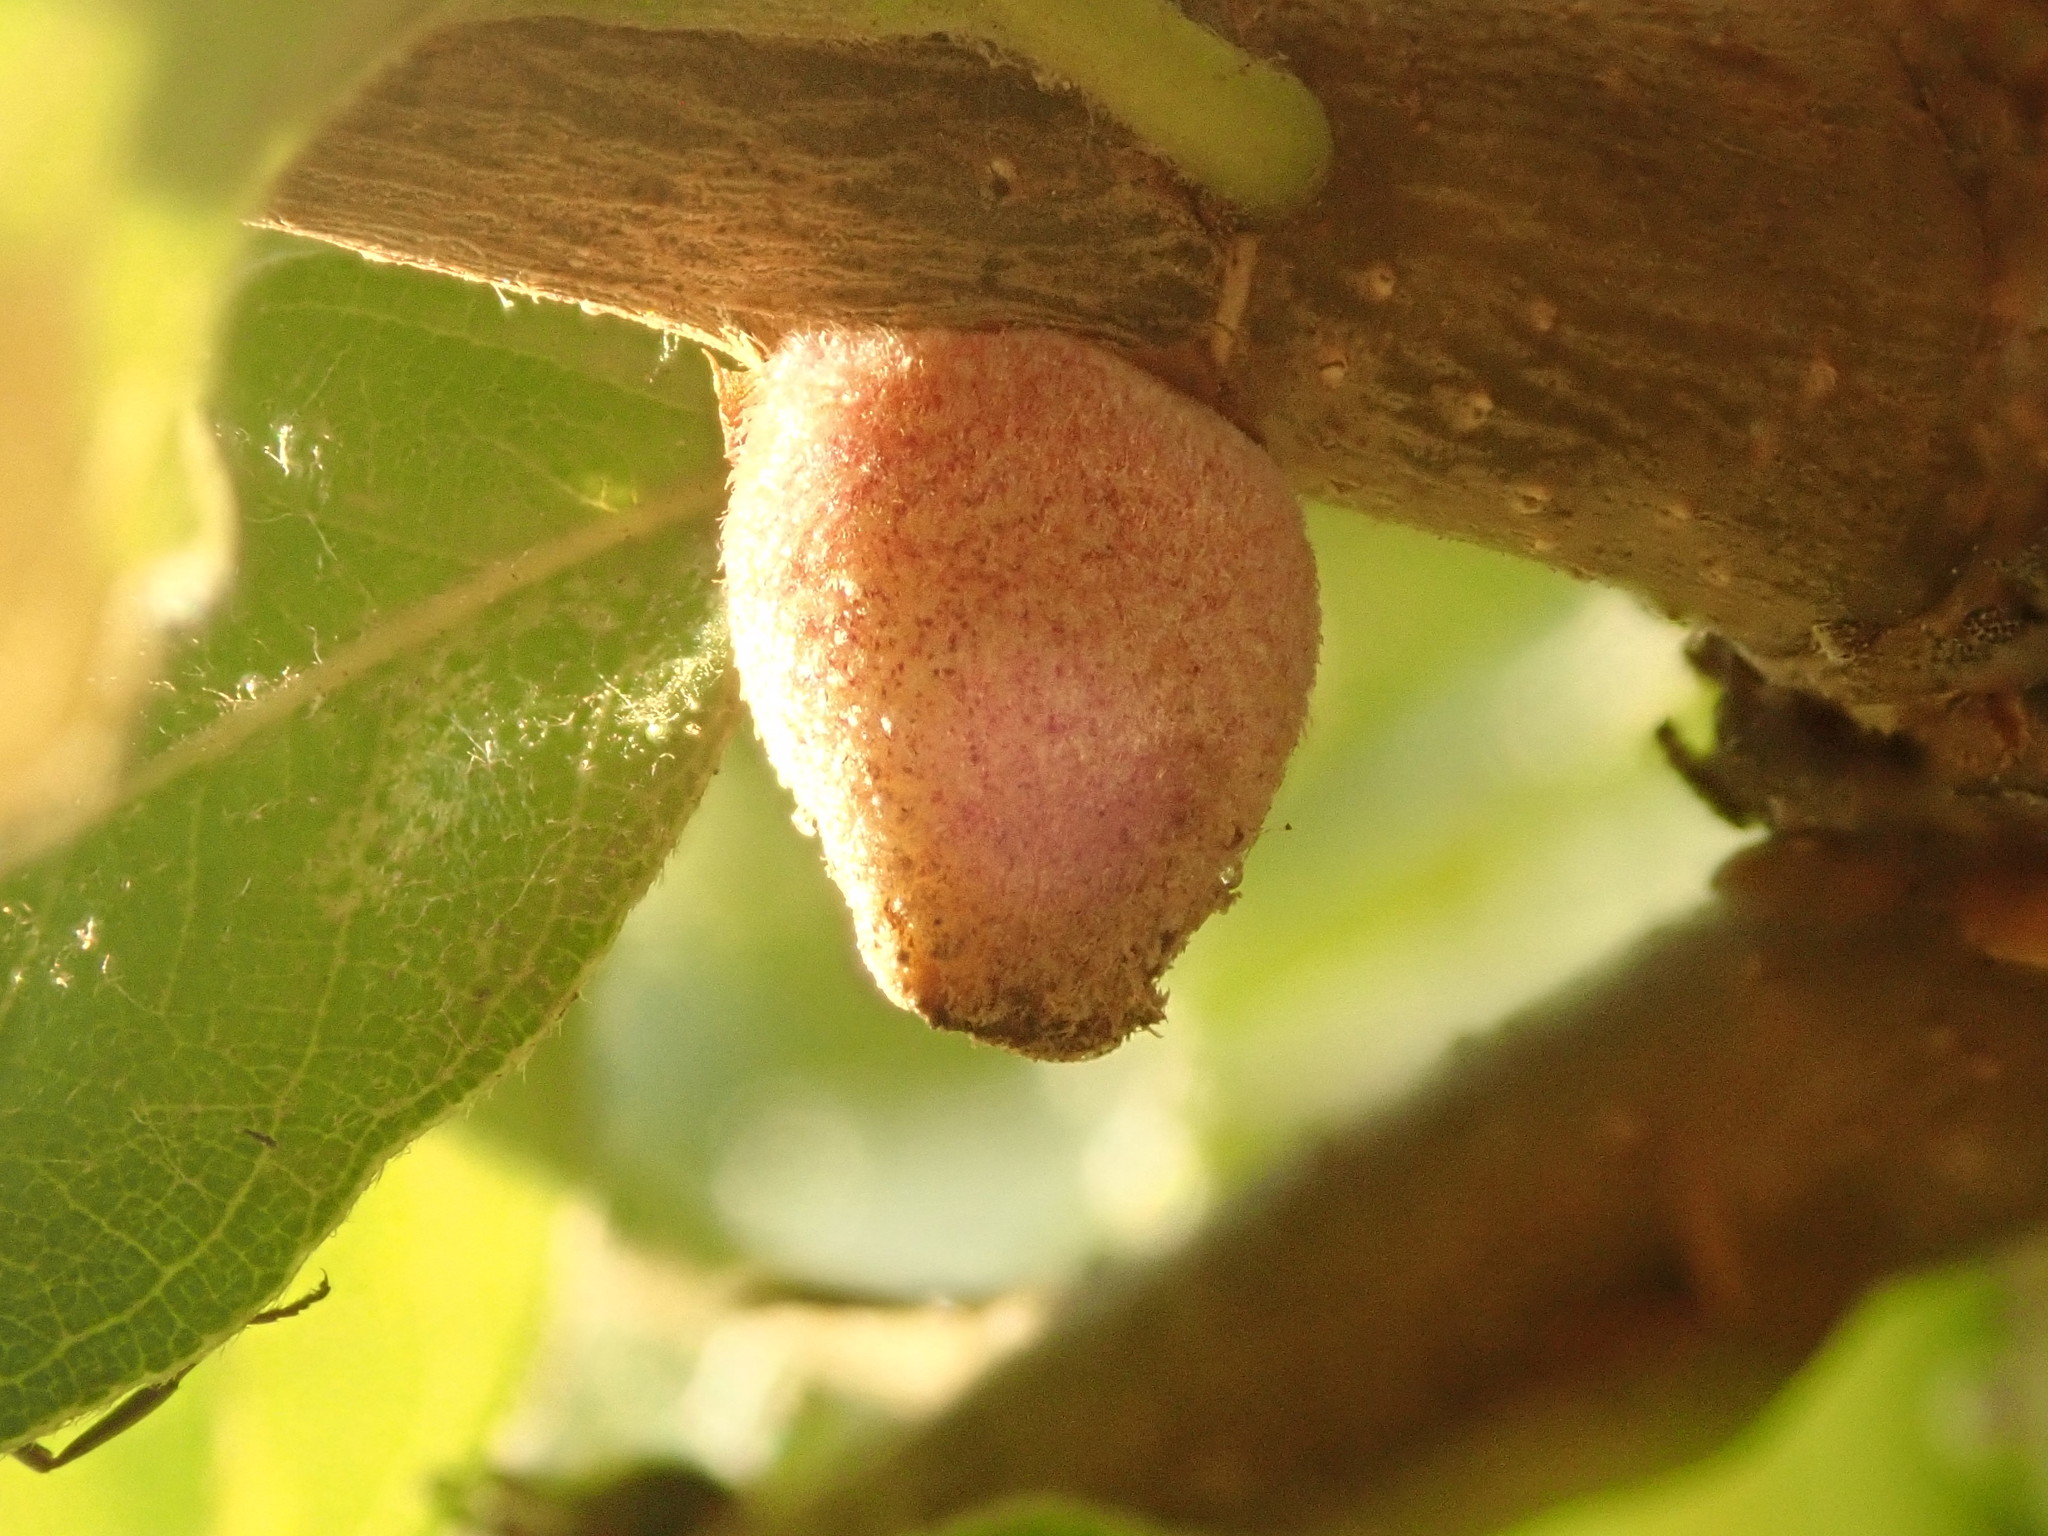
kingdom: Animalia
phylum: Arthropoda
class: Insecta
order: Hymenoptera
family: Cynipidae
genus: Disholcaspis
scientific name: Disholcaspis
